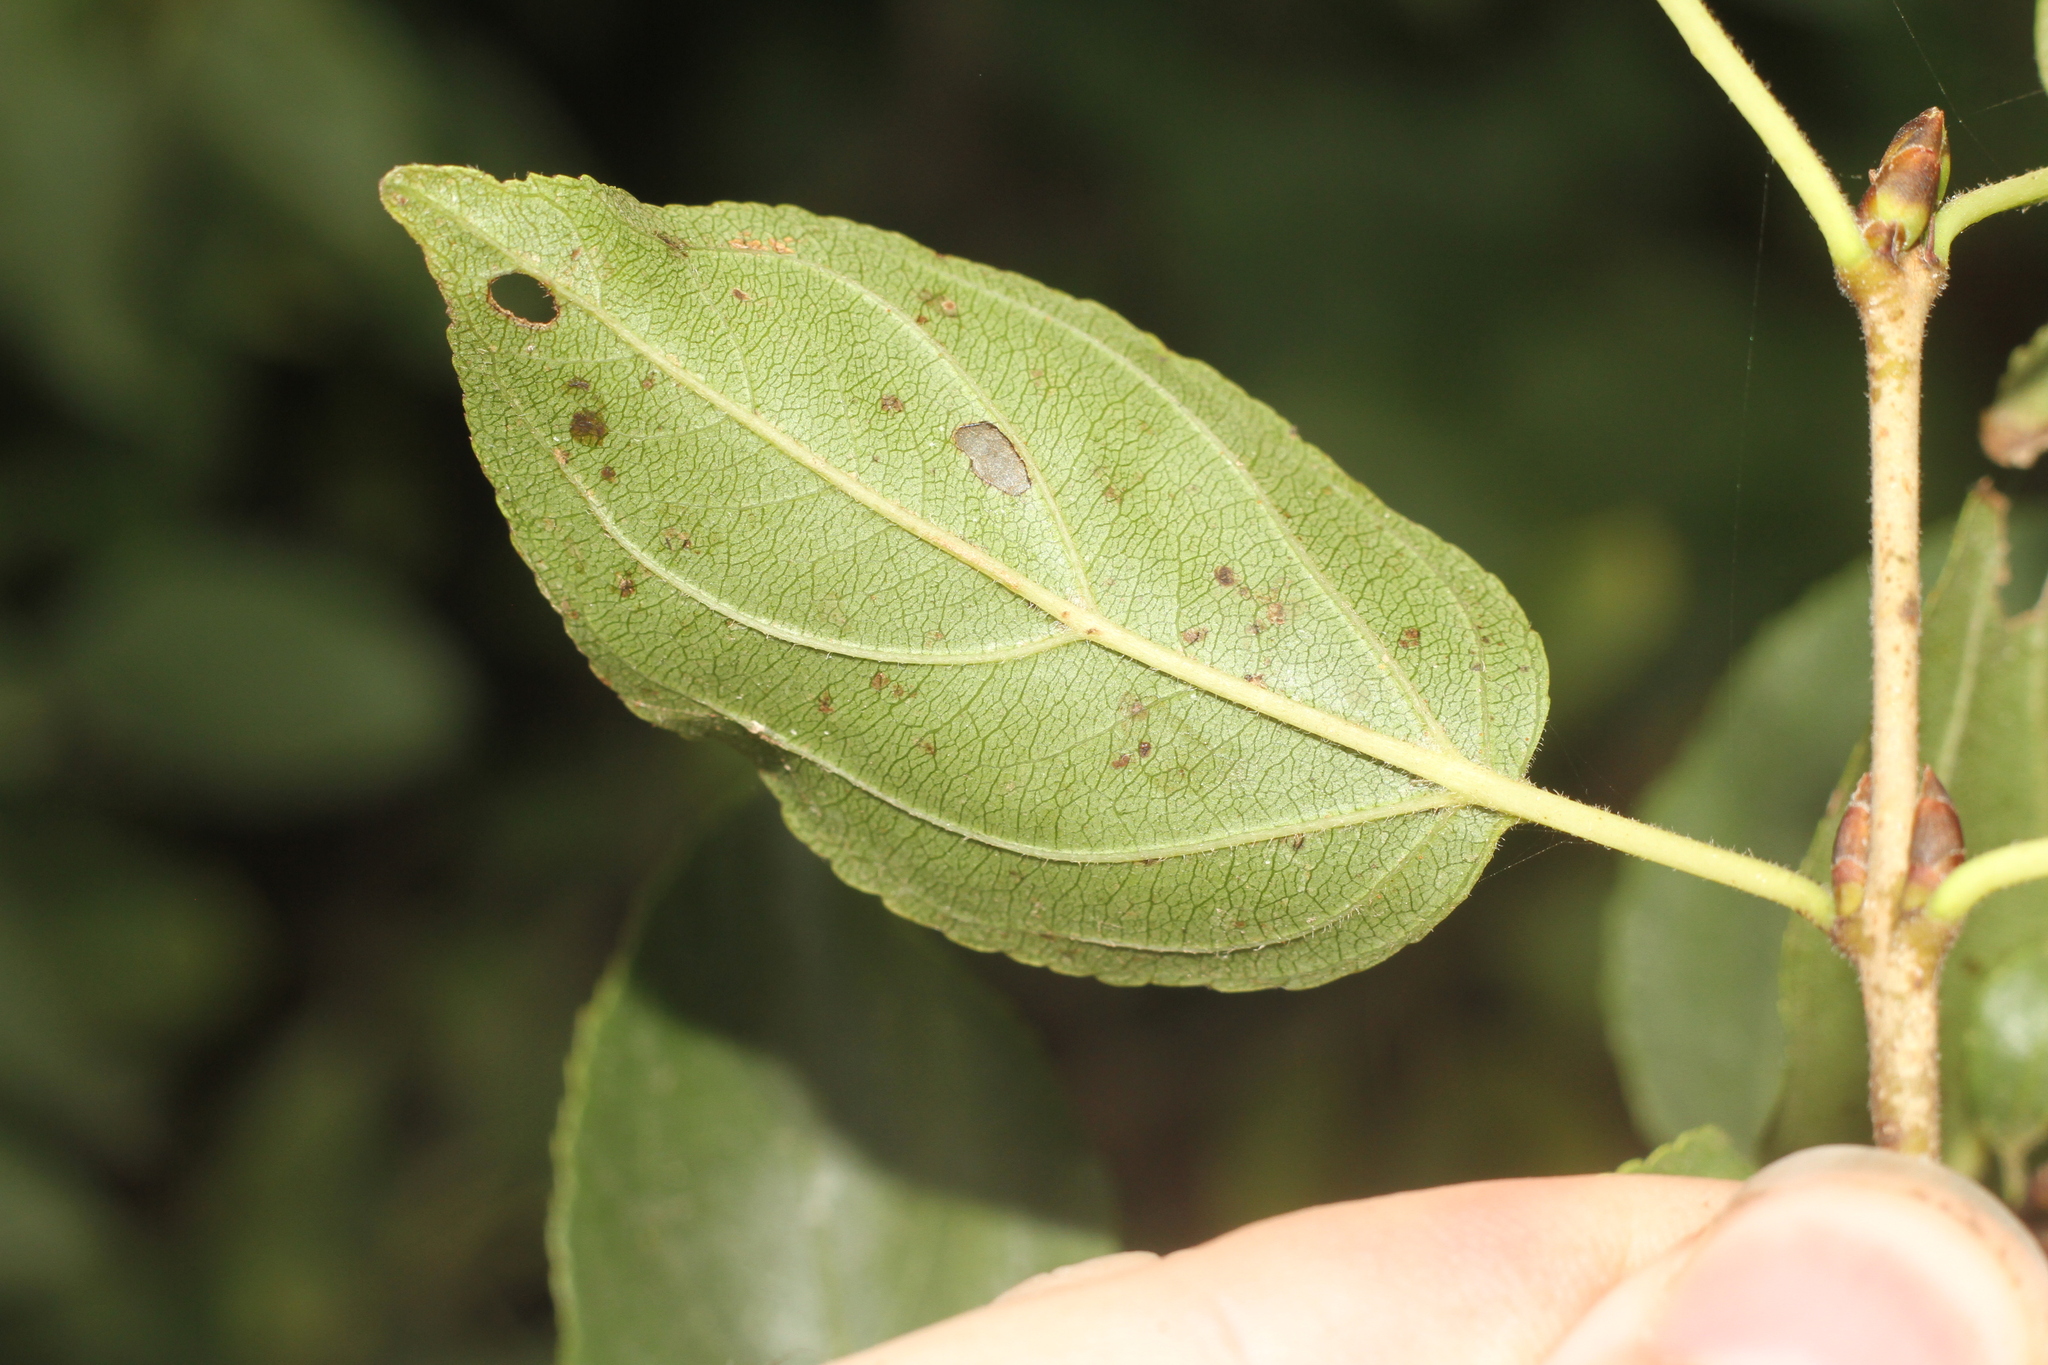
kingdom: Plantae
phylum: Tracheophyta
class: Magnoliopsida
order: Rosales
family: Rhamnaceae
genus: Rhamnus
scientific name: Rhamnus cathartica
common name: Common buckthorn
